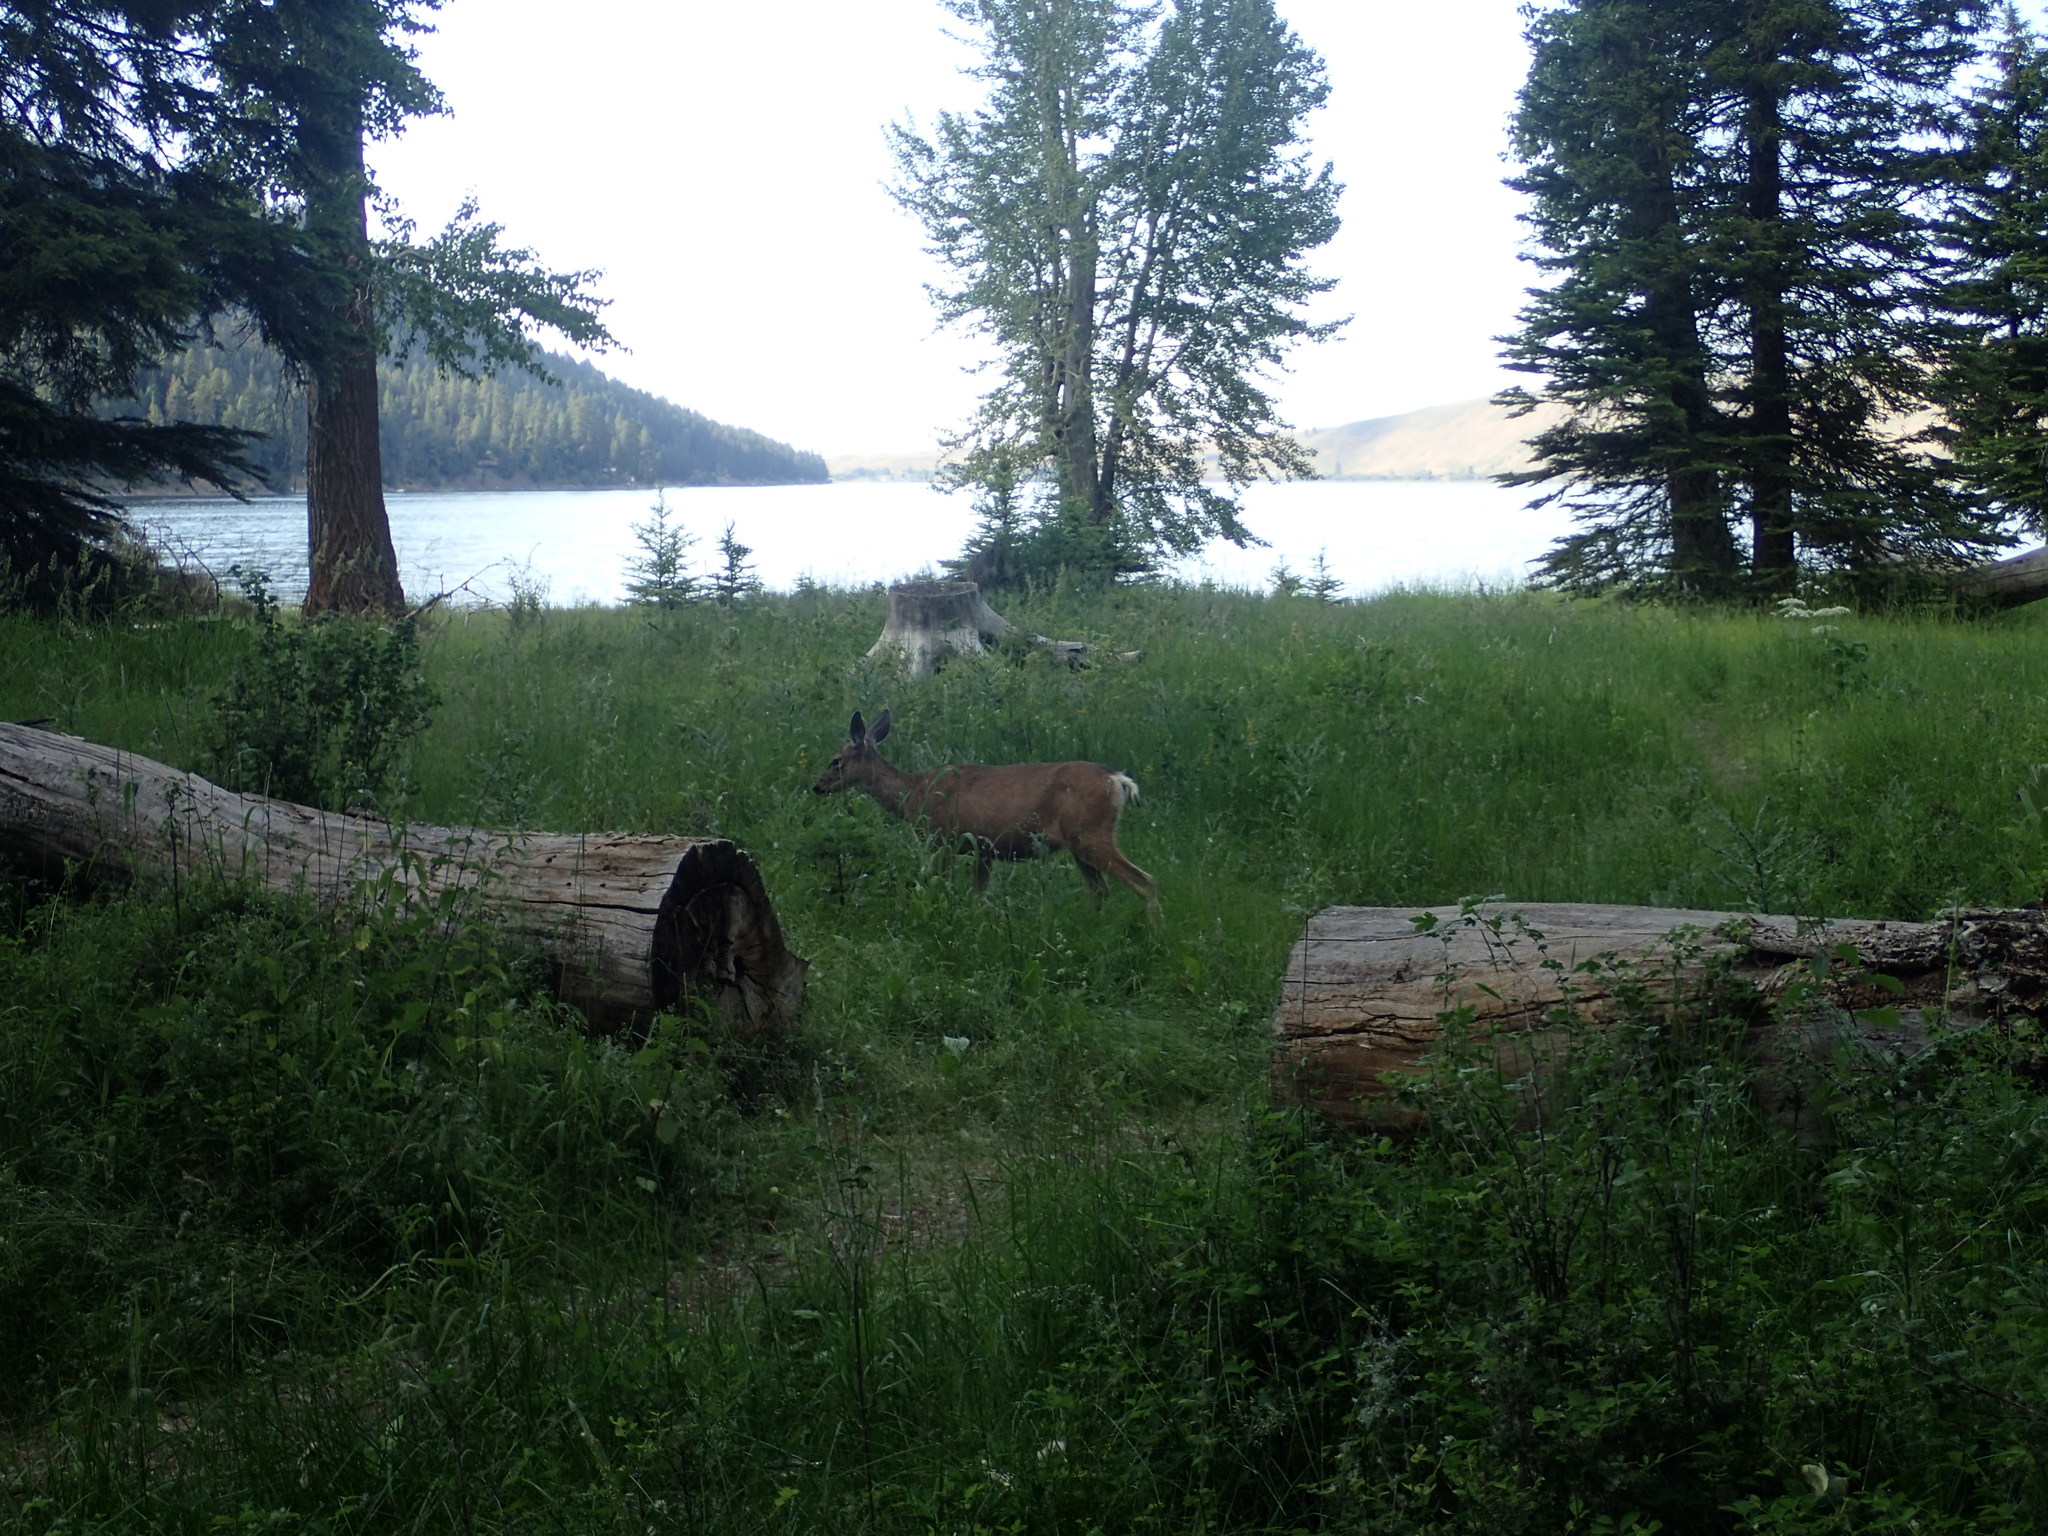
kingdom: Animalia
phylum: Chordata
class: Mammalia
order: Artiodactyla
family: Cervidae
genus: Odocoileus
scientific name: Odocoileus hemionus
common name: Mule deer
